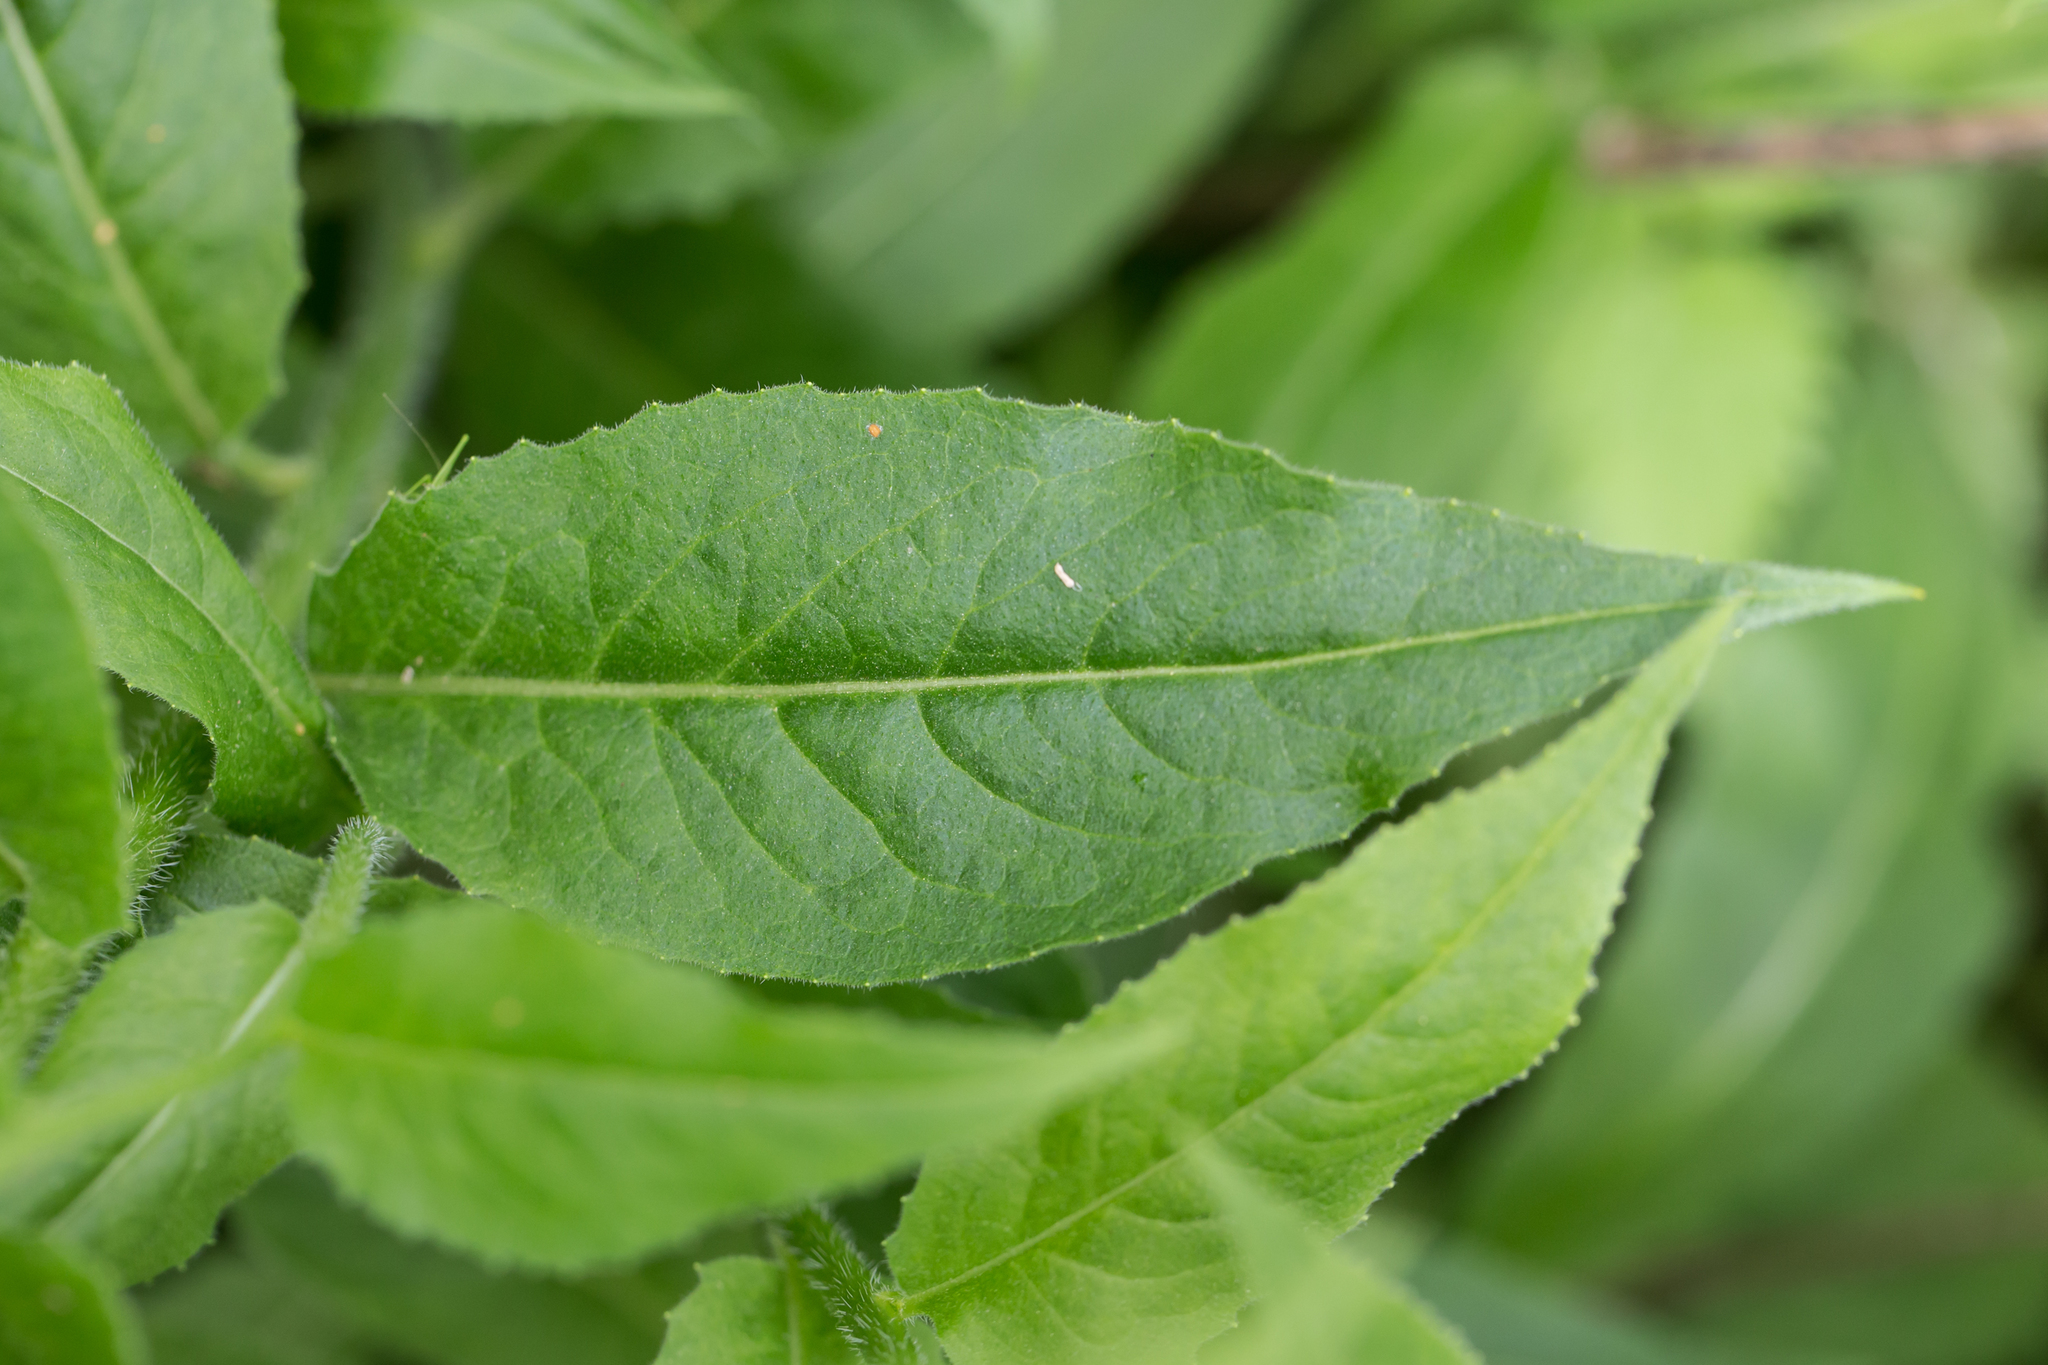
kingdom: Plantae
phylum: Tracheophyta
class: Magnoliopsida
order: Brassicales
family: Brassicaceae
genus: Hesperis
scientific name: Hesperis matronalis
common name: Dame's-violet
